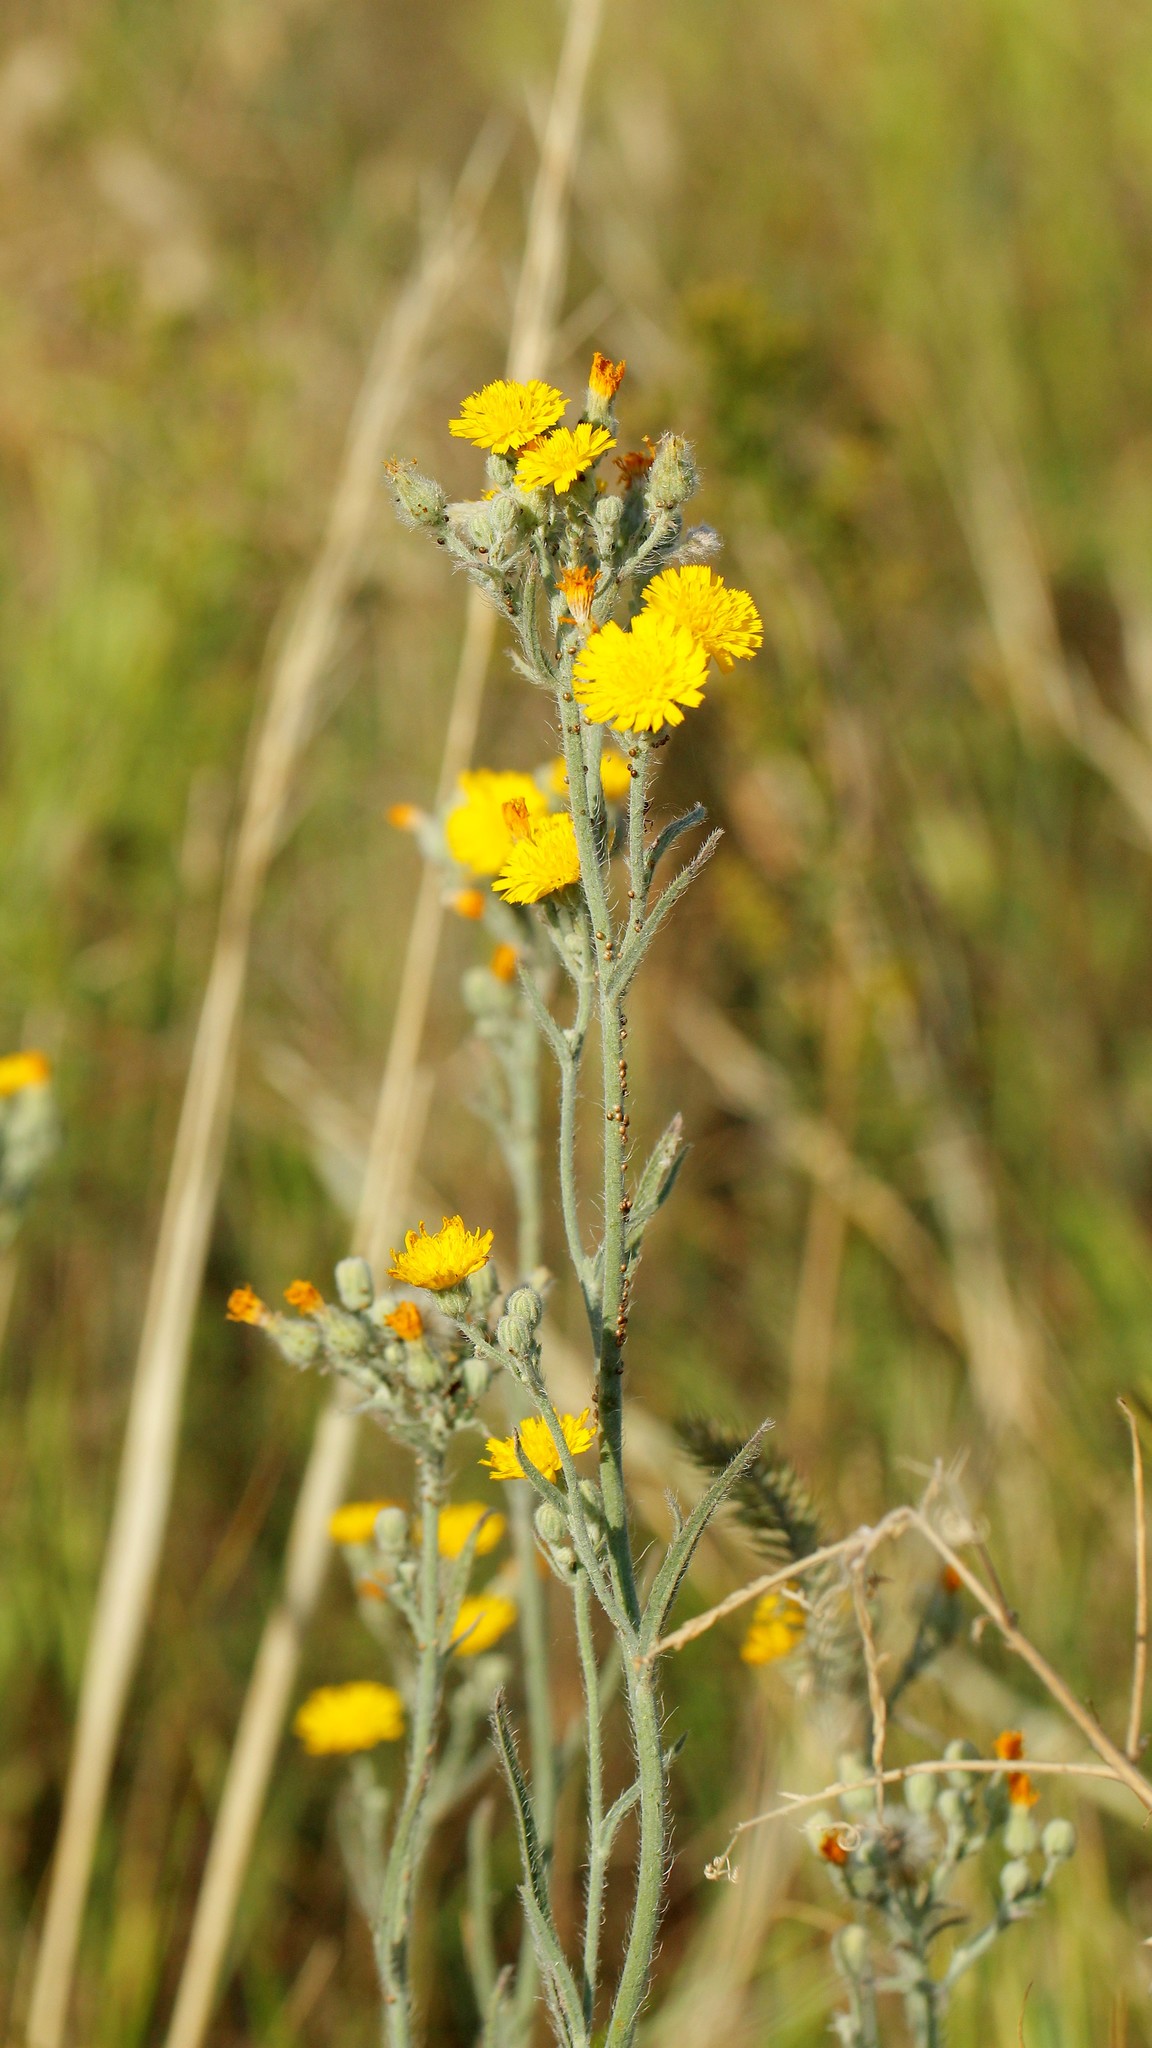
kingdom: Plantae
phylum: Tracheophyta
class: Magnoliopsida
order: Asterales
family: Asteraceae
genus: Pilosella
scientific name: Pilosella echioides
